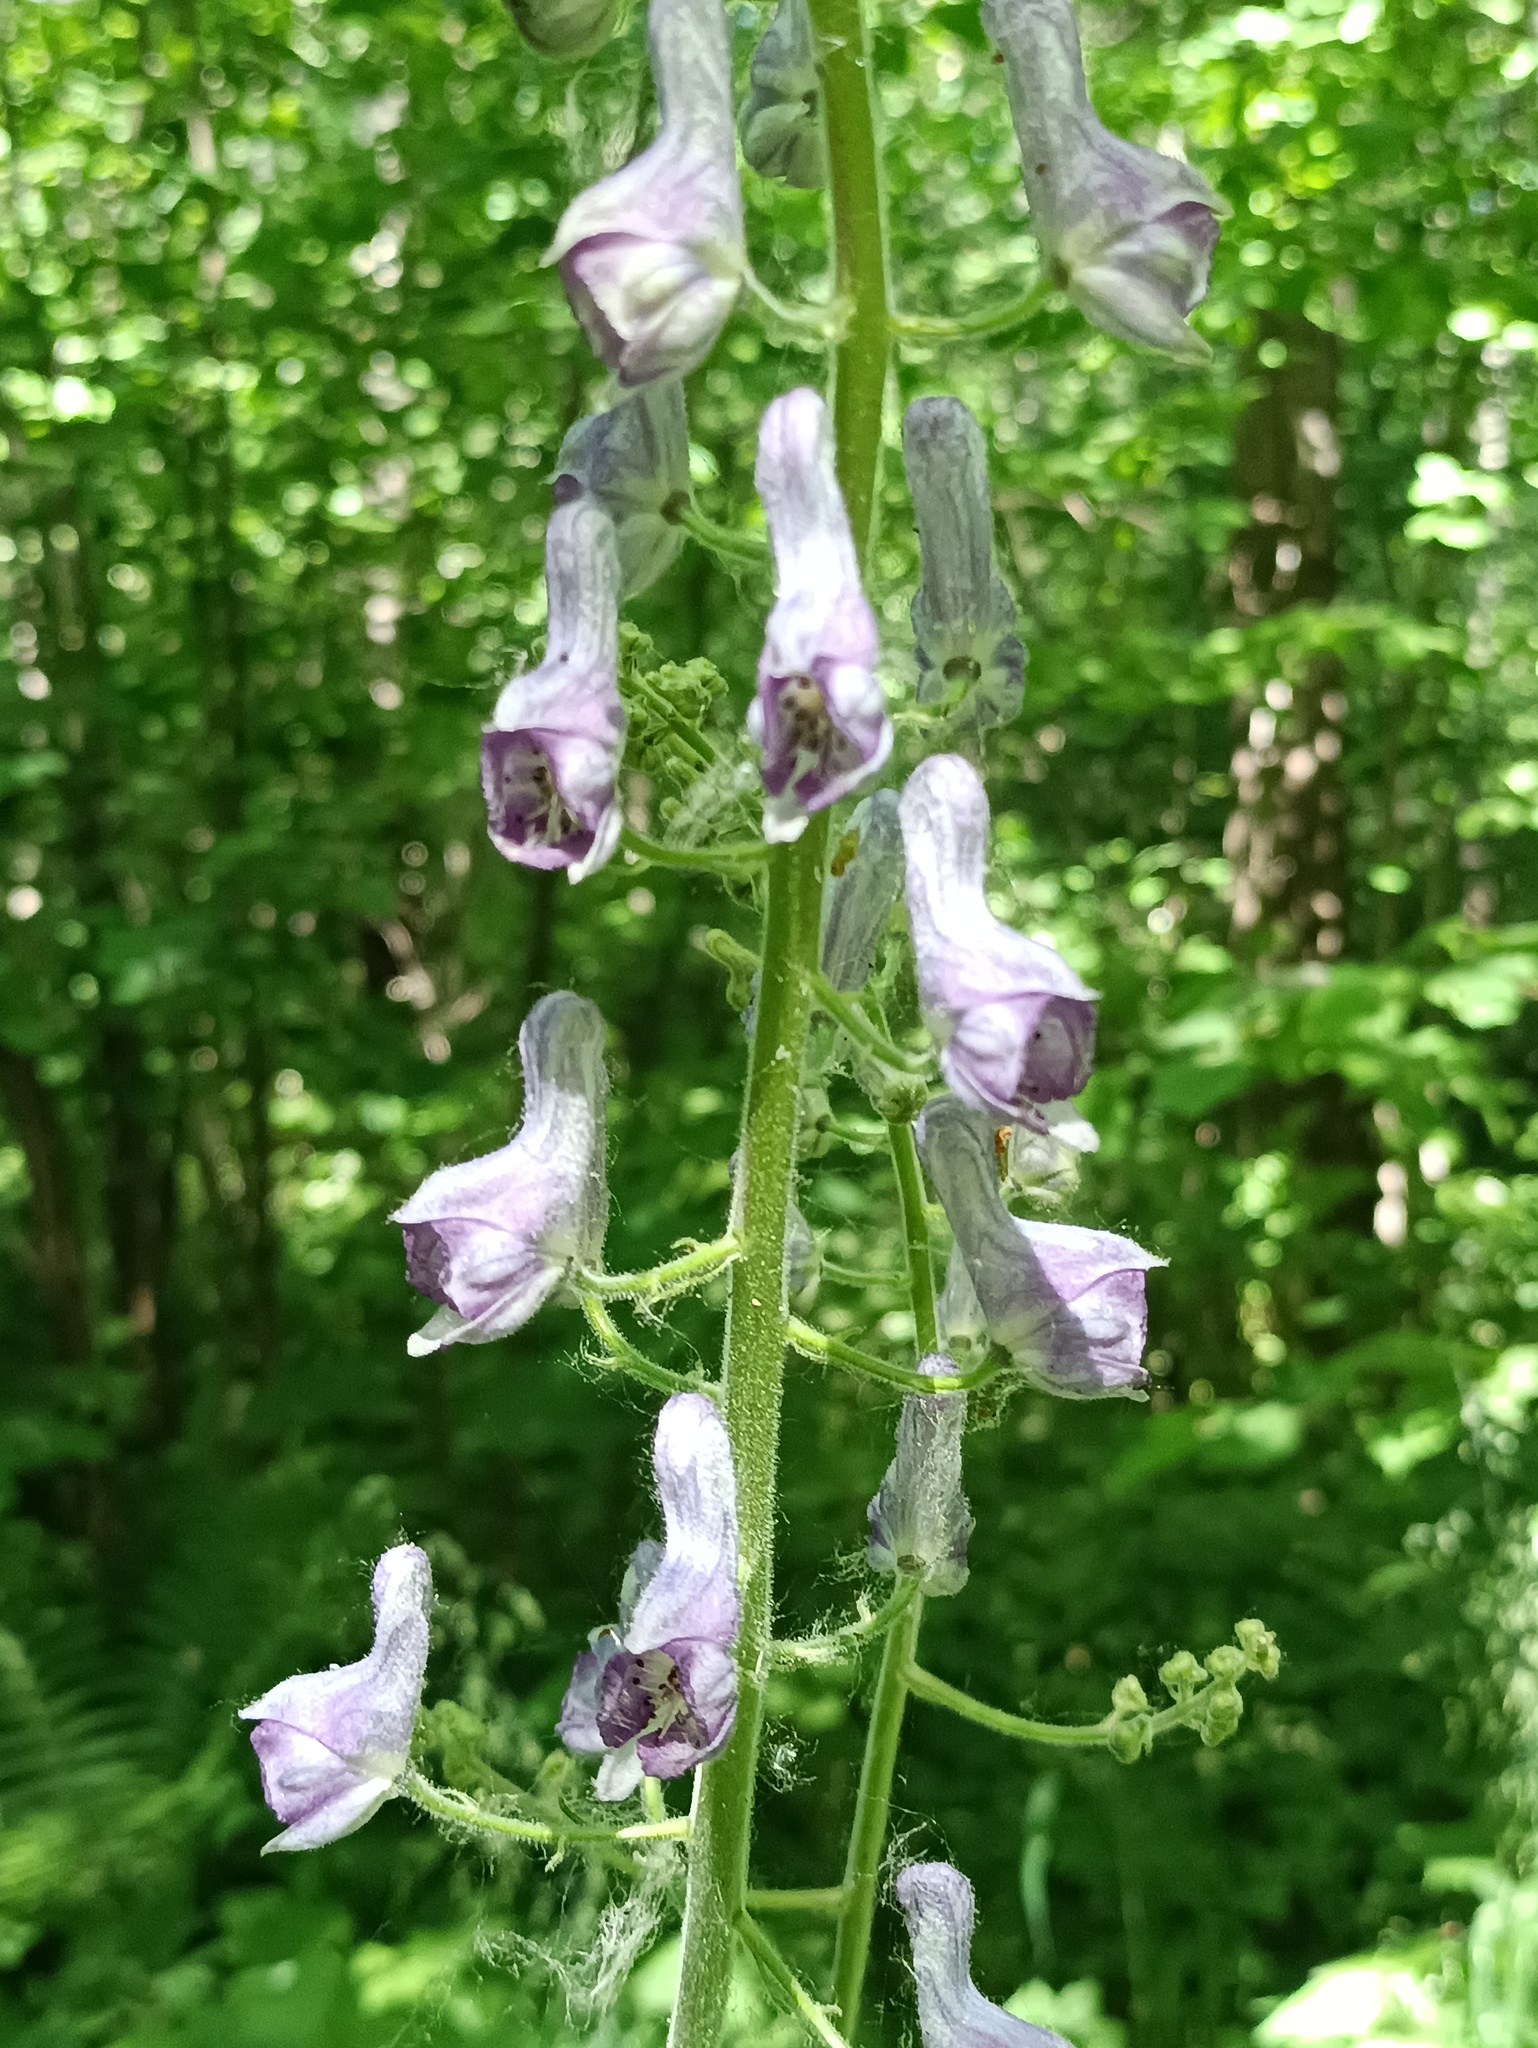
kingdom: Plantae
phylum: Tracheophyta
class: Magnoliopsida
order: Ranunculales
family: Ranunculaceae
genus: Aconitum
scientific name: Aconitum septentrionale
